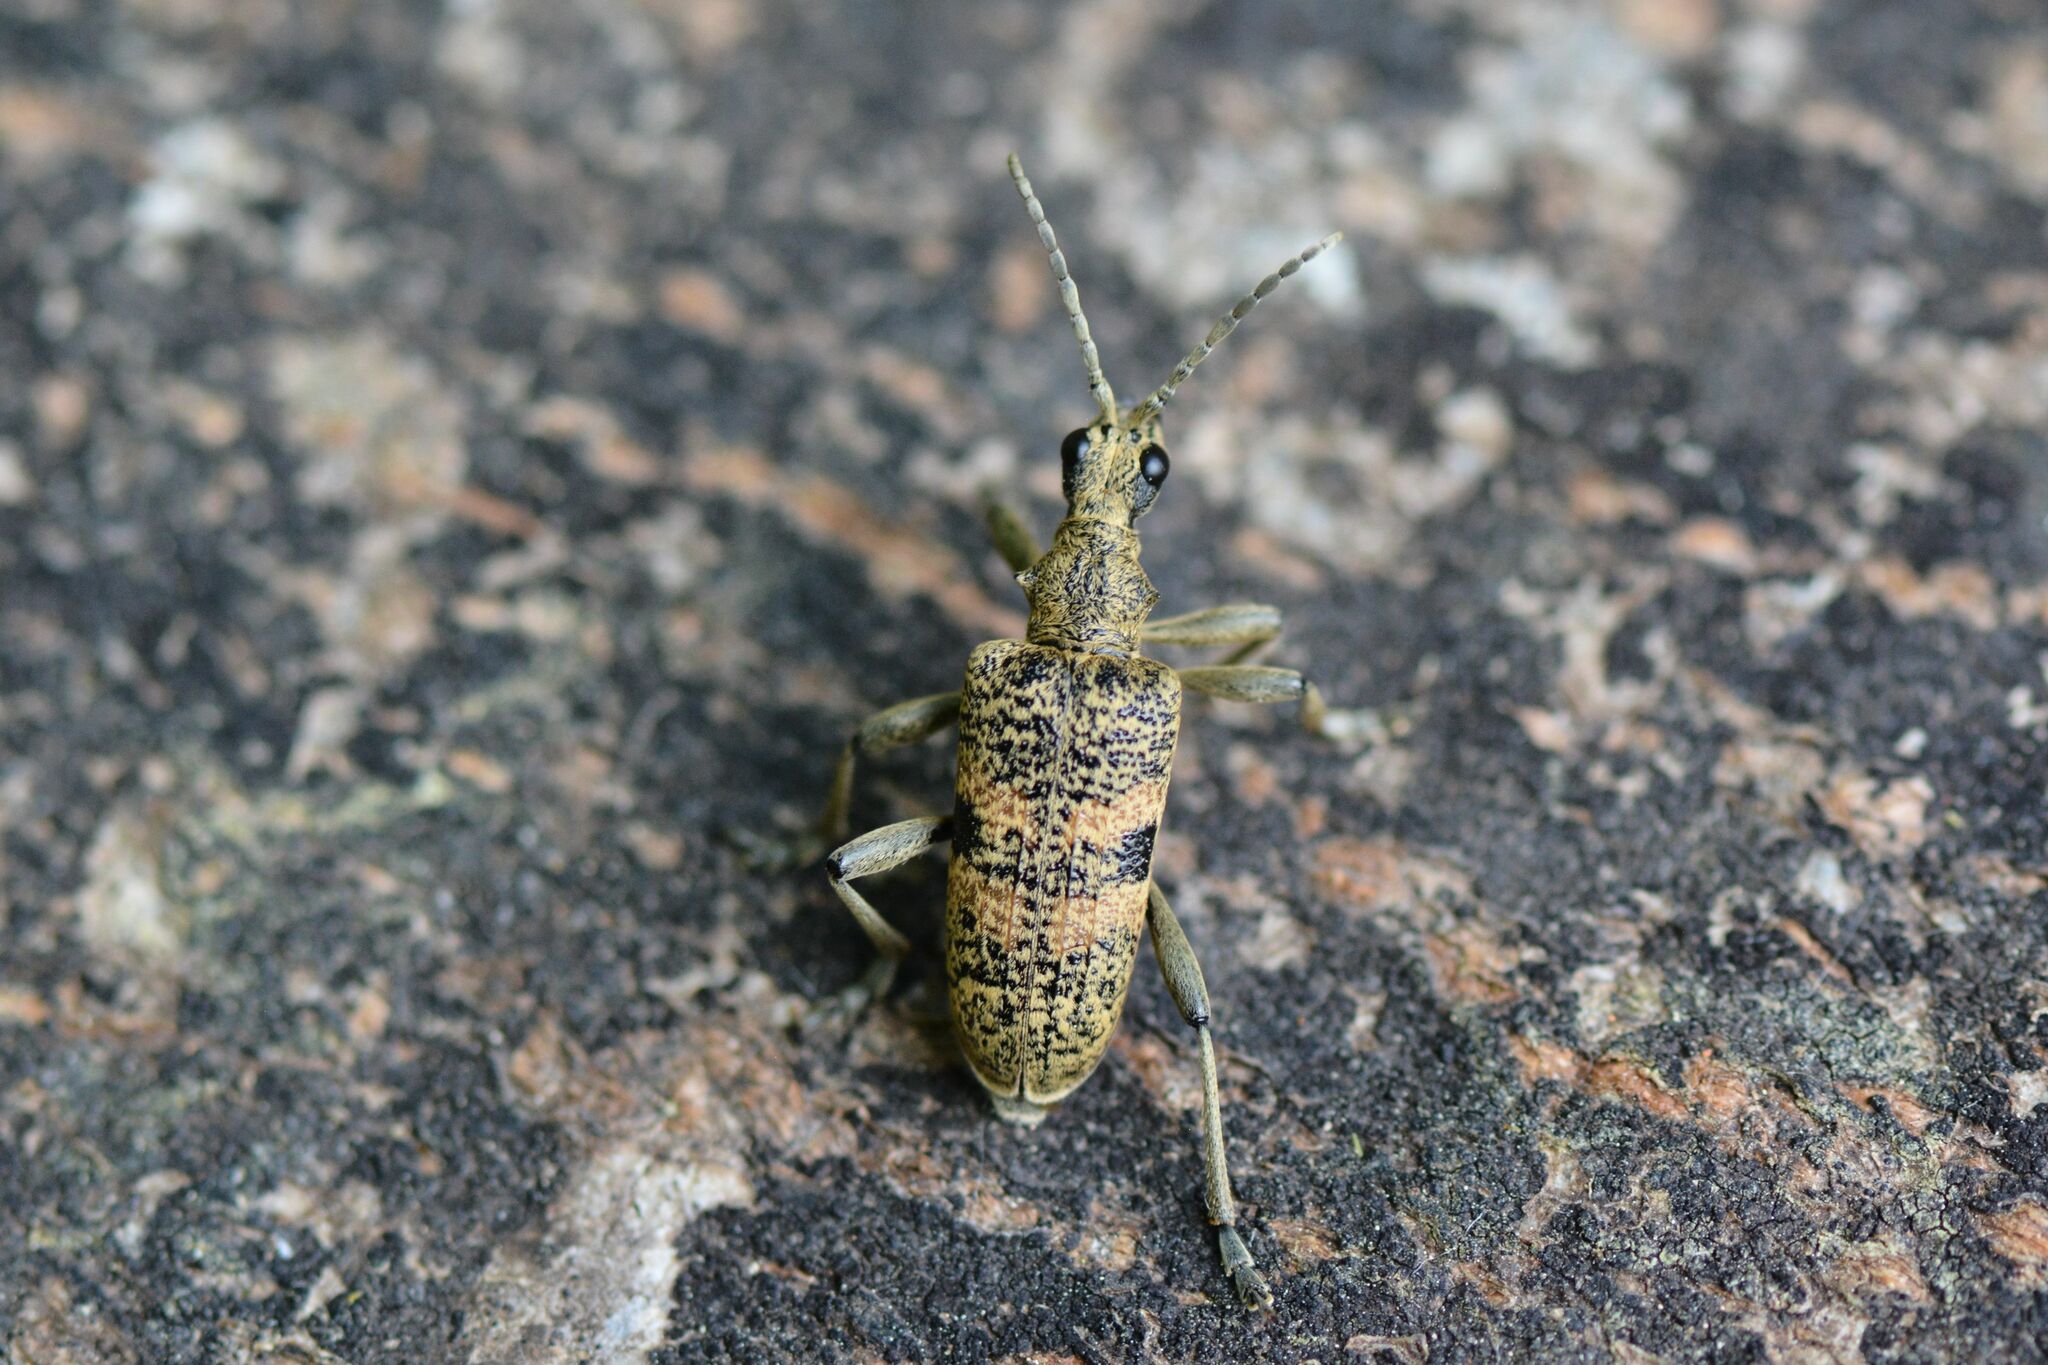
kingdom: Animalia
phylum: Arthropoda
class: Insecta
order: Coleoptera
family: Cerambycidae
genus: Rhagium
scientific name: Rhagium mordax
